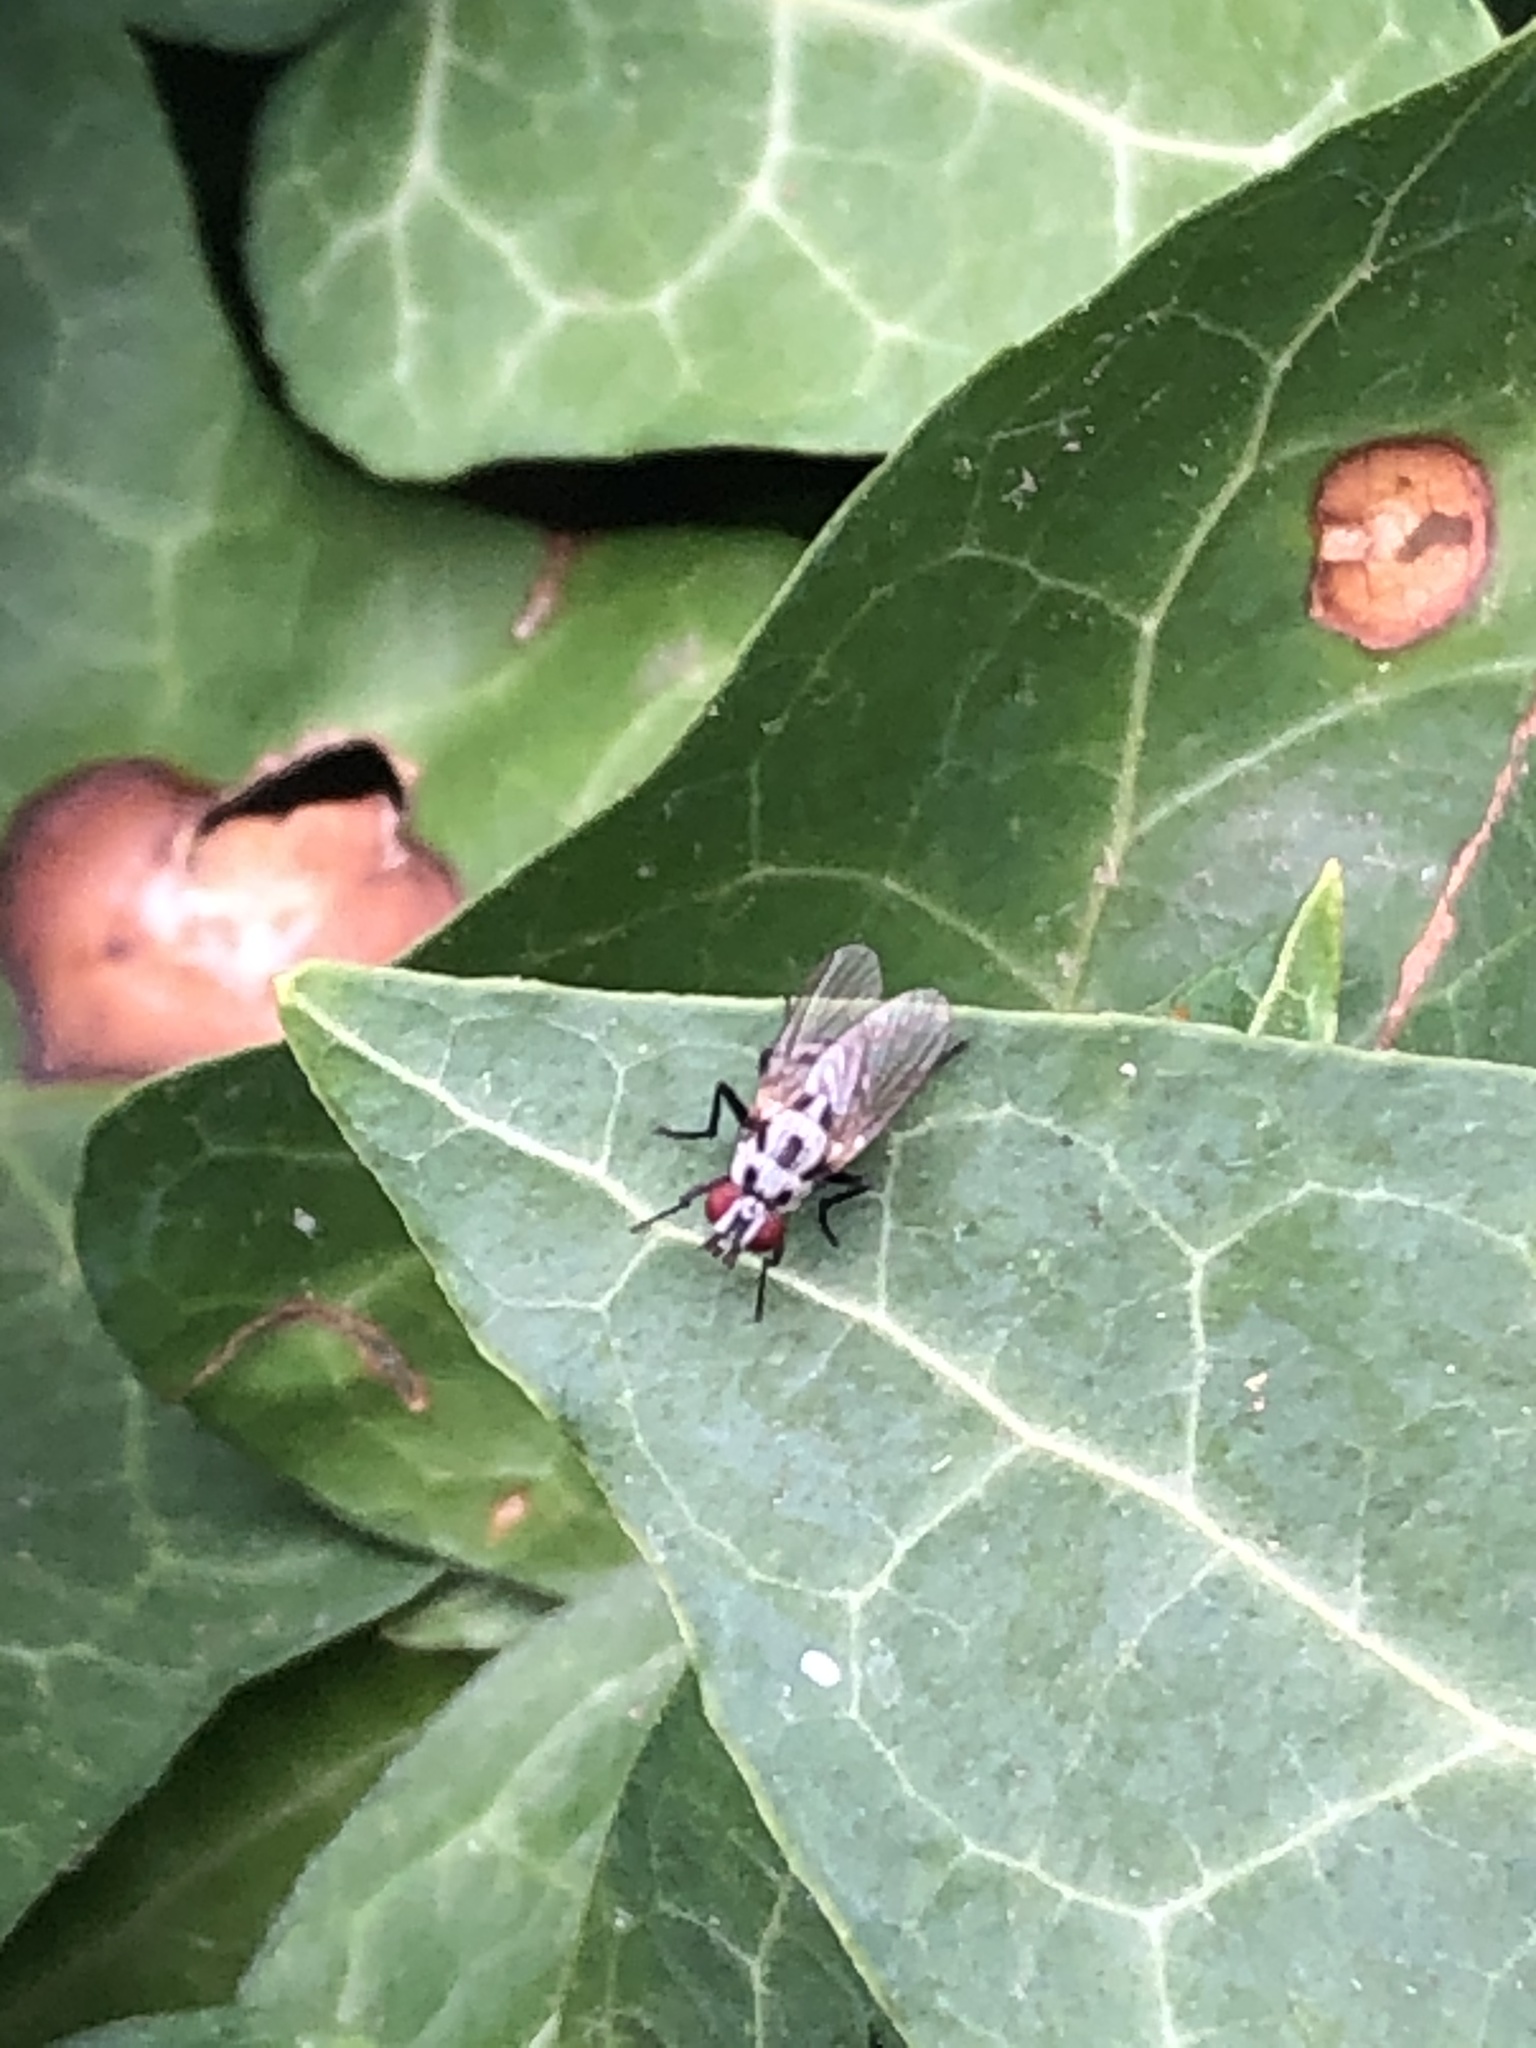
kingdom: Animalia
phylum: Arthropoda
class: Insecta
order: Diptera
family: Anthomyiidae
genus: Anthomyia
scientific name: Anthomyia procellaris
